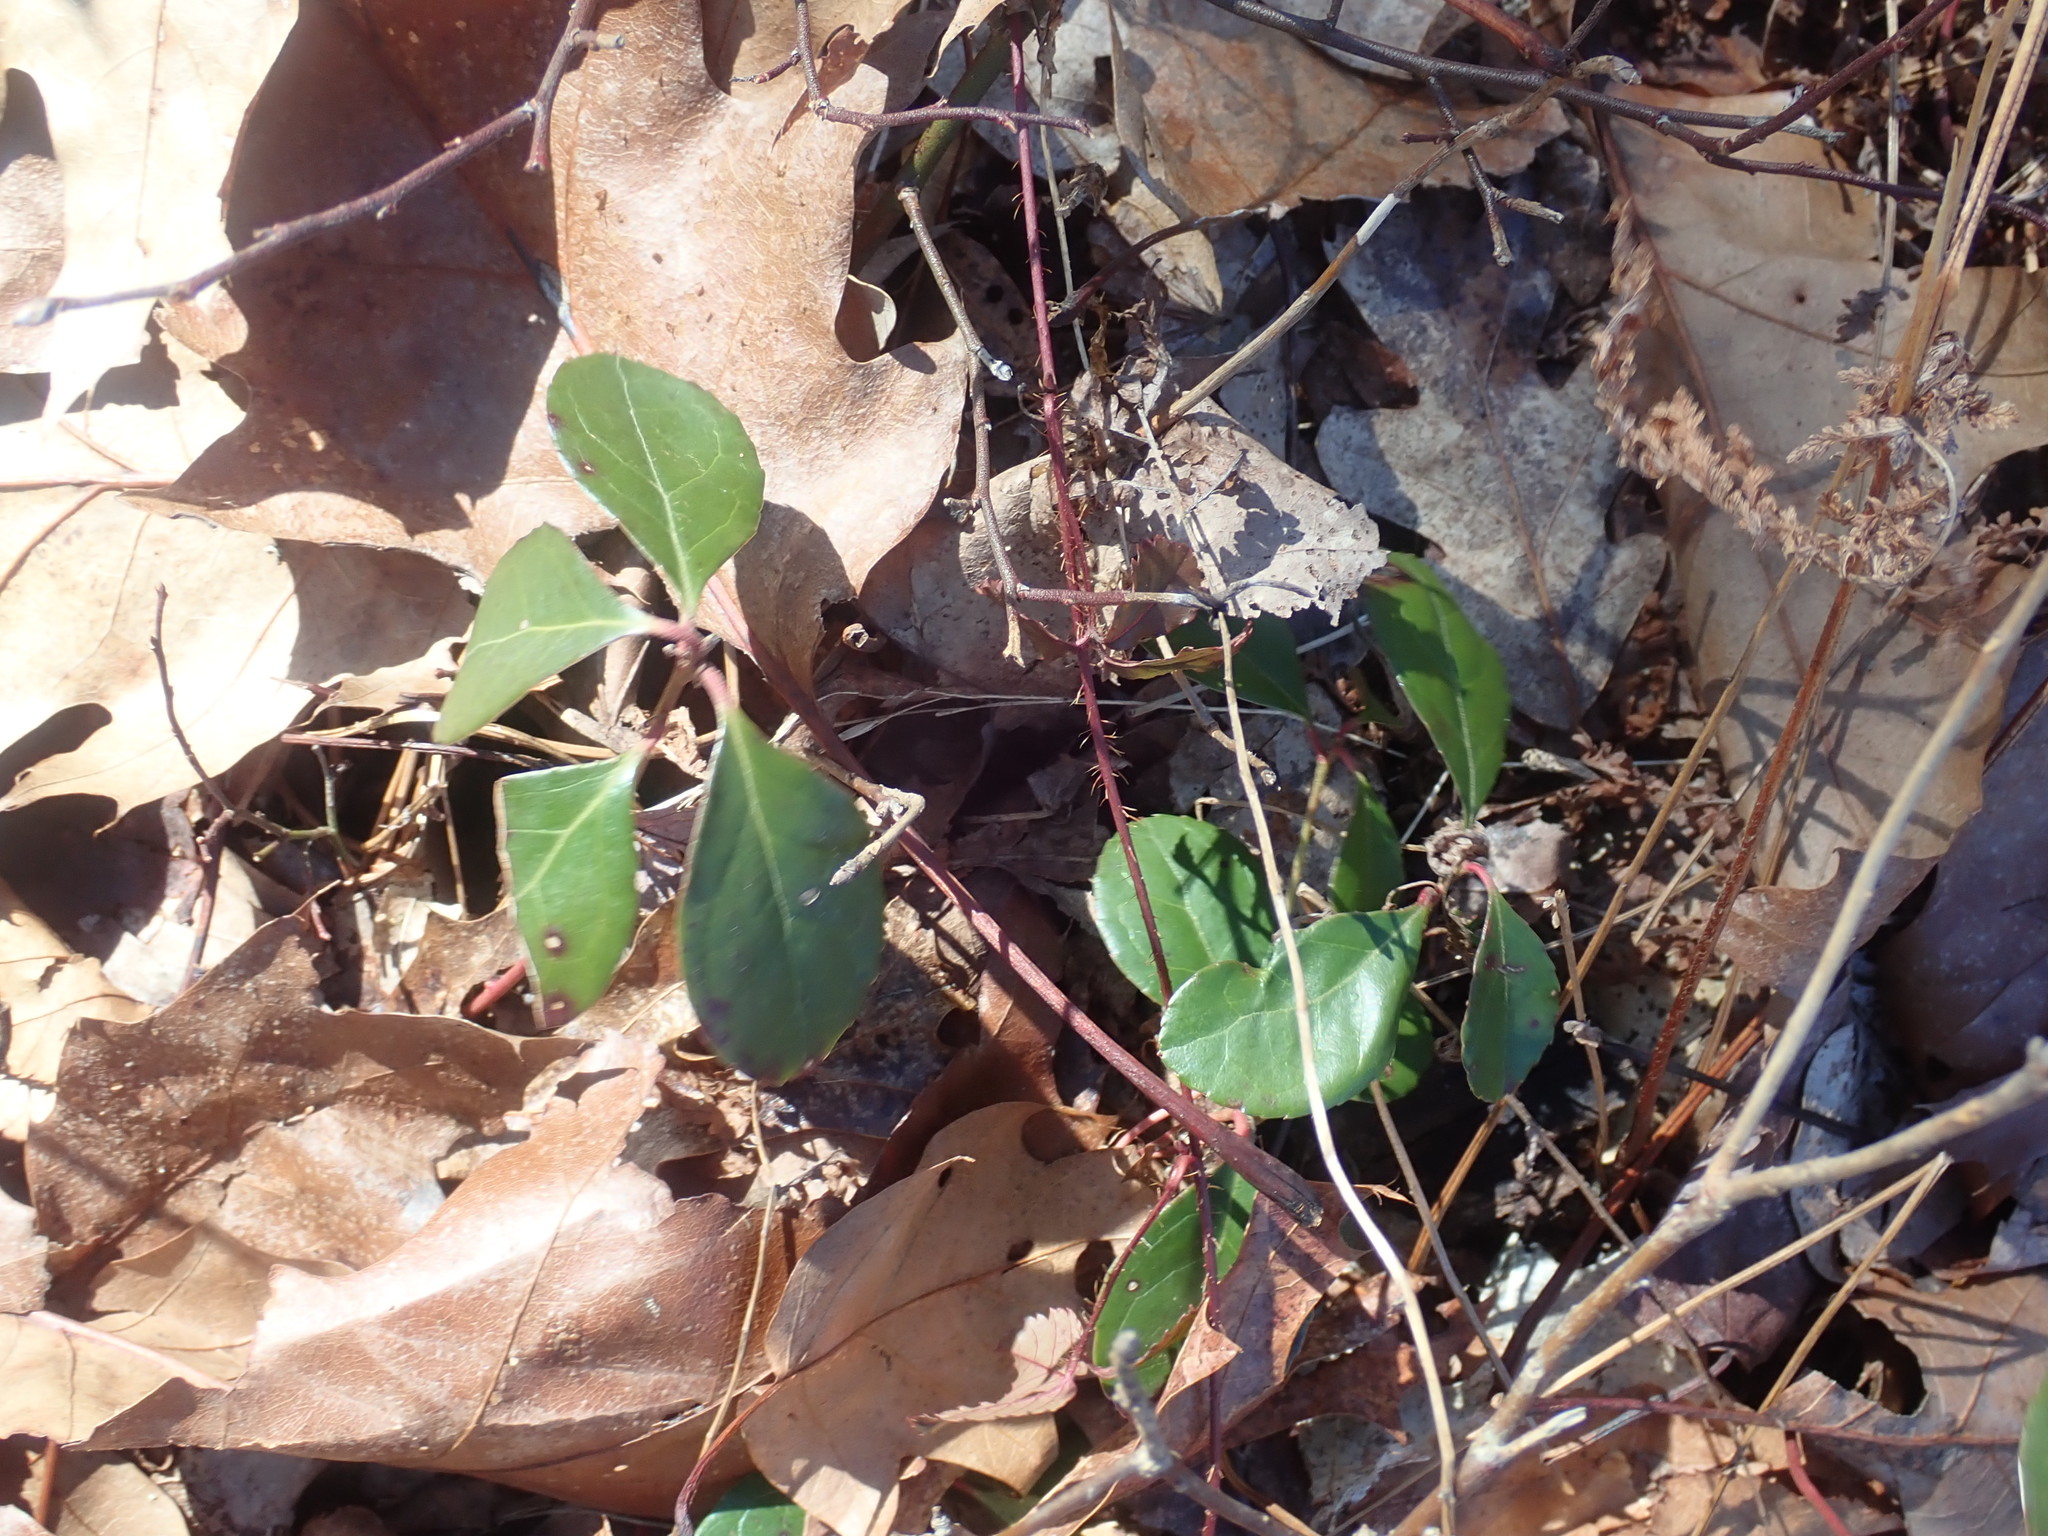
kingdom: Plantae
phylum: Tracheophyta
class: Magnoliopsida
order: Ericales
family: Ericaceae
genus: Gaultheria
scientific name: Gaultheria procumbens
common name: Checkerberry
